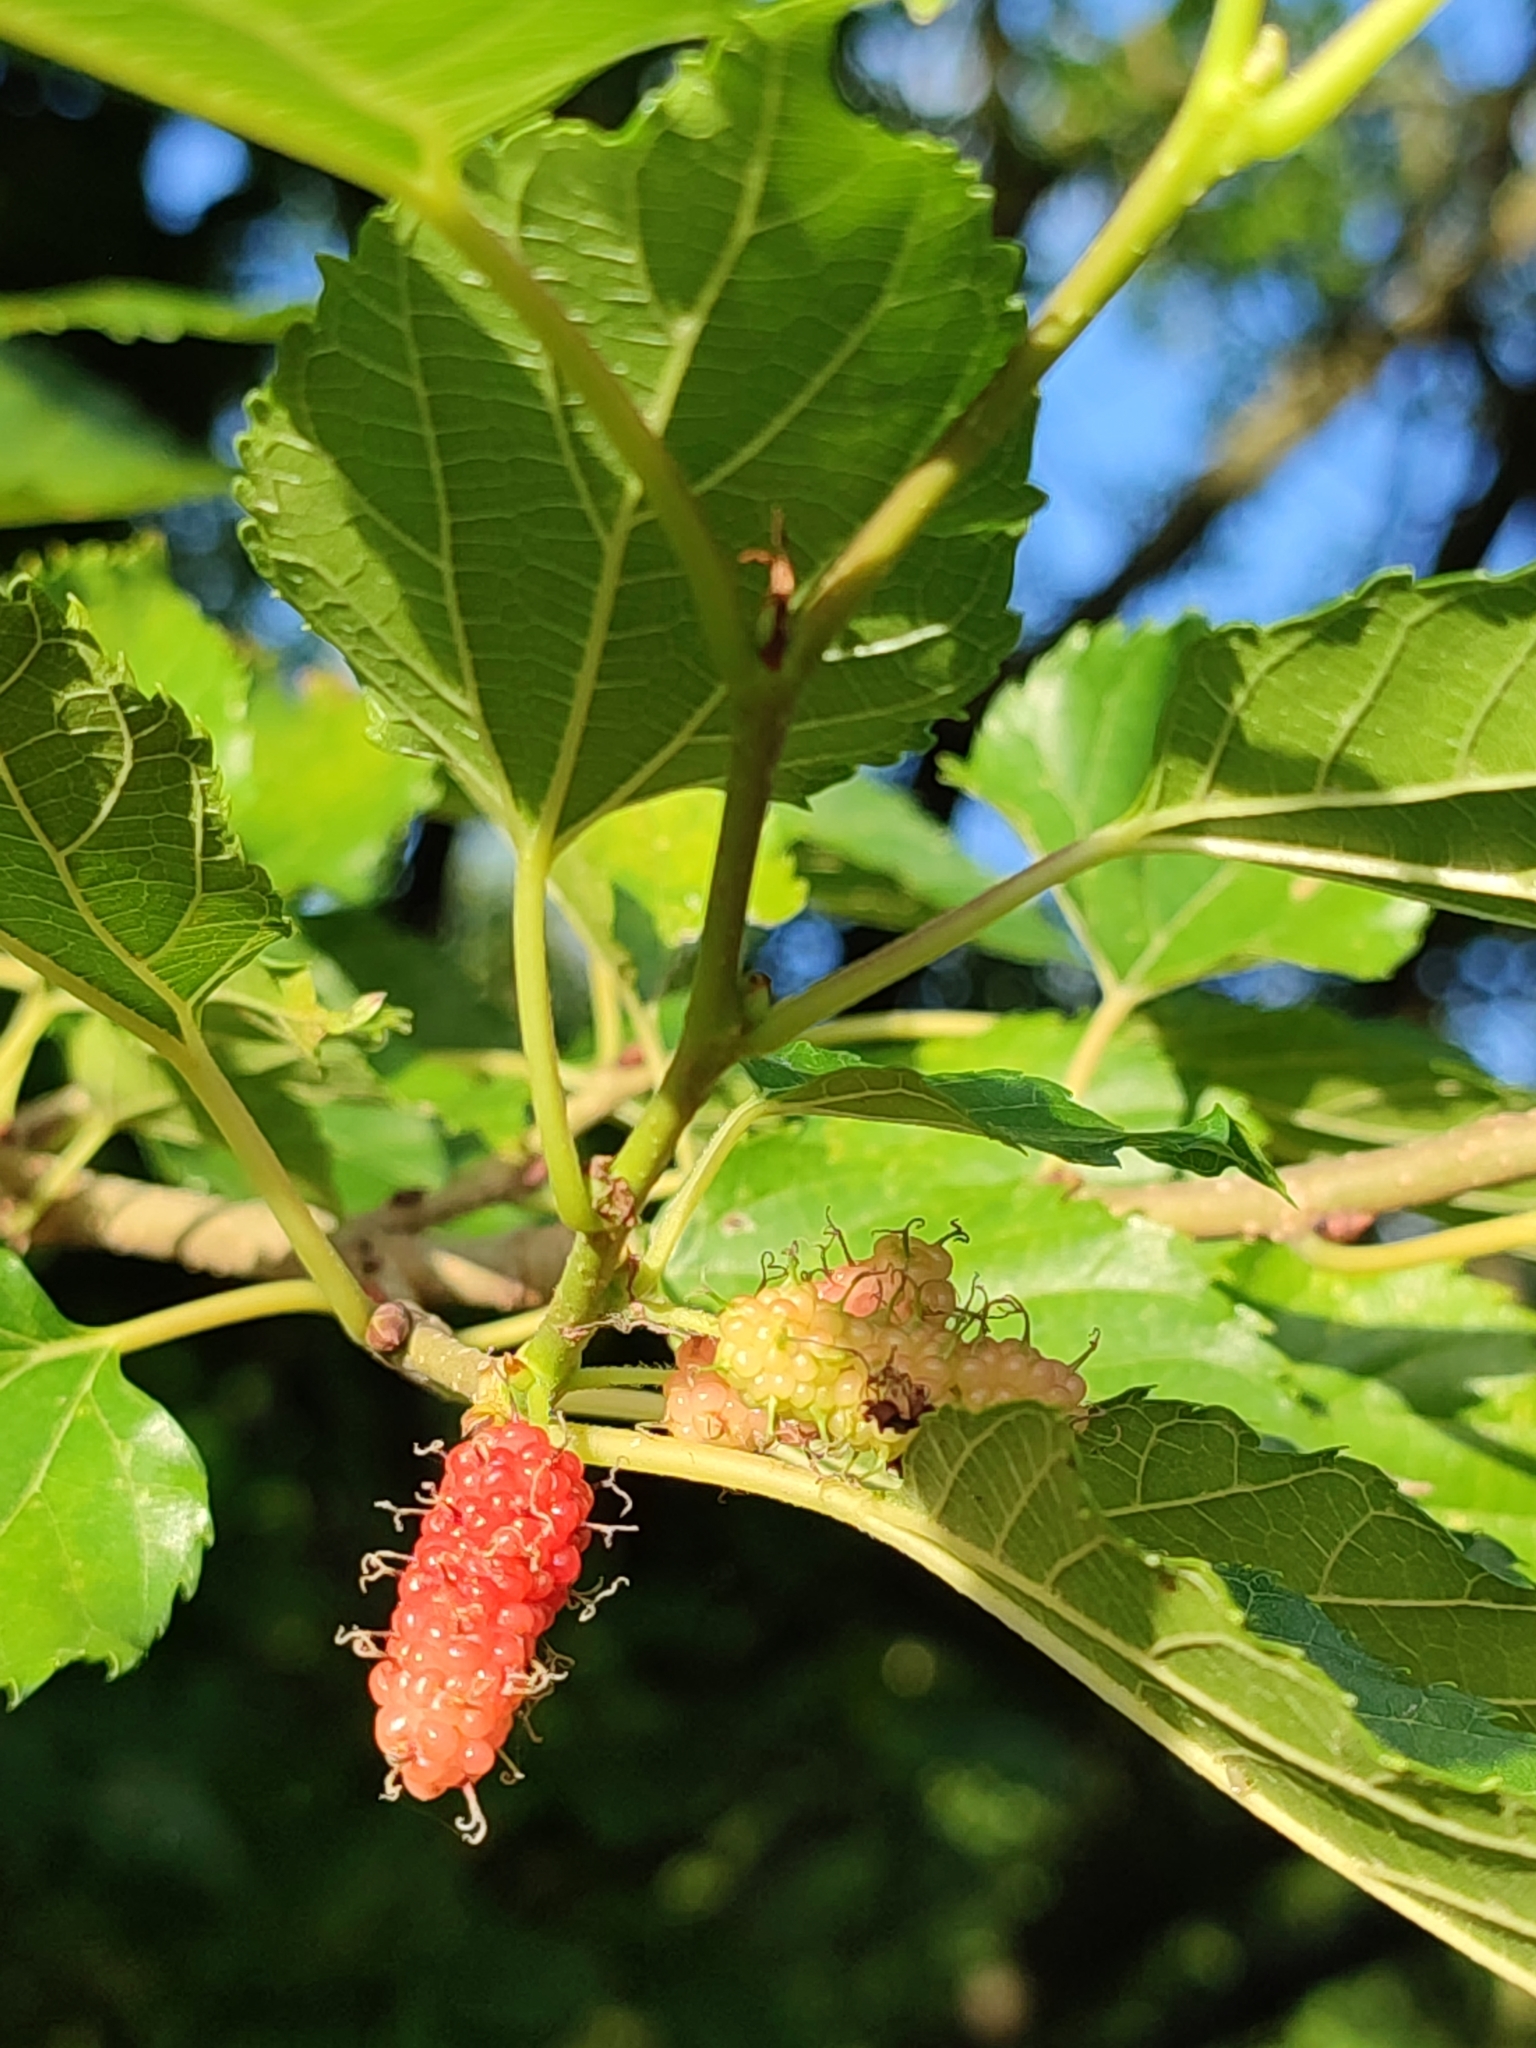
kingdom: Plantae
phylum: Tracheophyta
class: Magnoliopsida
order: Rosales
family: Moraceae
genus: Morus
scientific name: Morus indica
